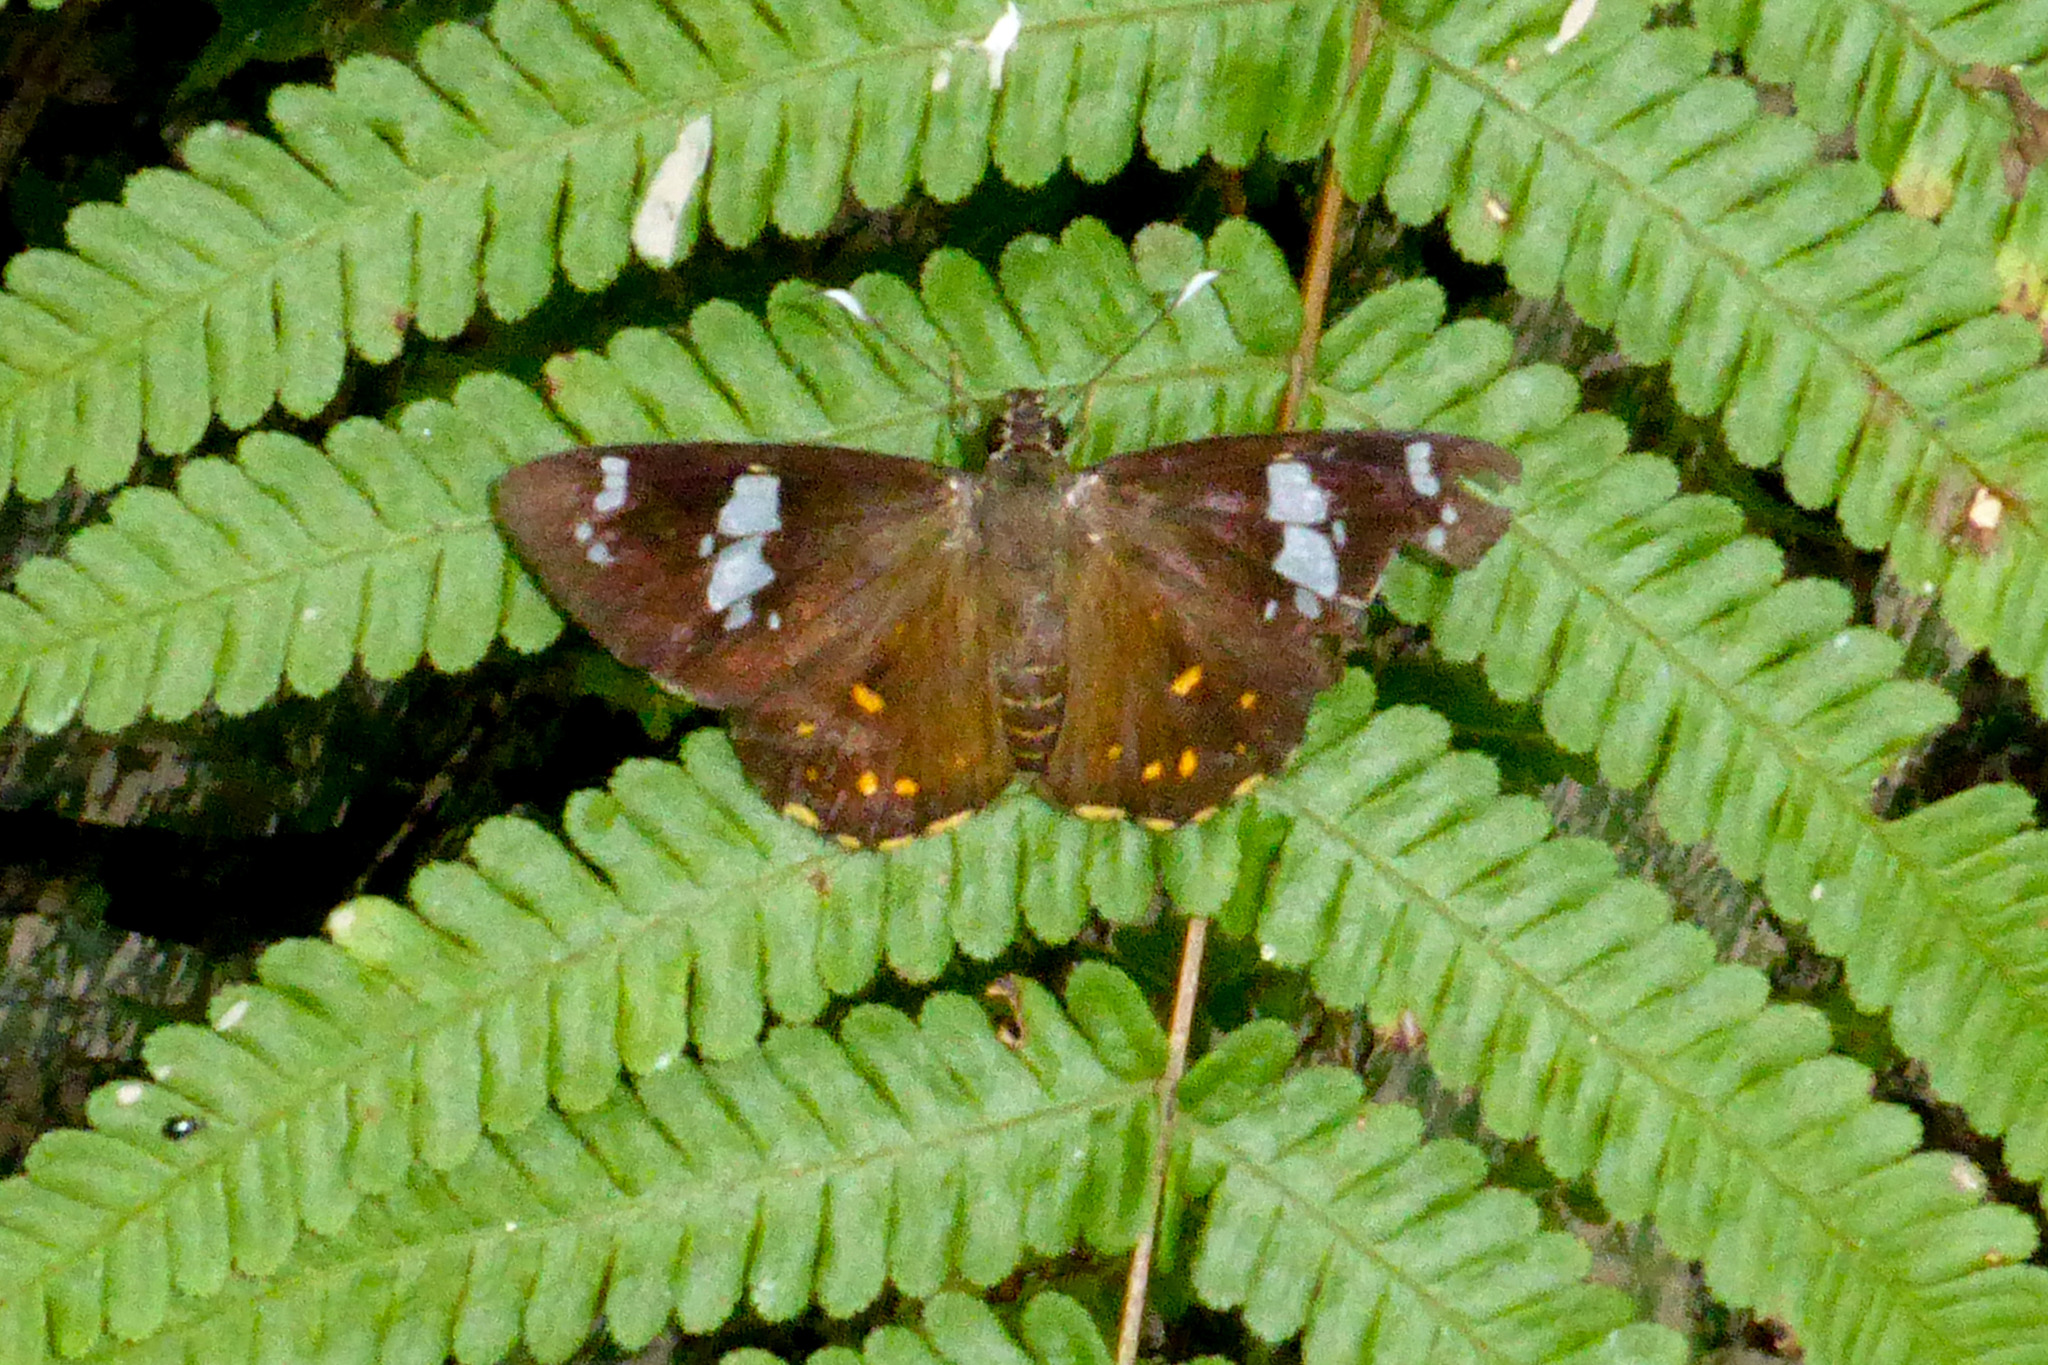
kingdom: Animalia
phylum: Arthropoda
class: Insecta
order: Lepidoptera
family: Hesperiidae
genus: Celaenorrhinus
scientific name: Celaenorrhinus patula
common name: Flash spotted flat
